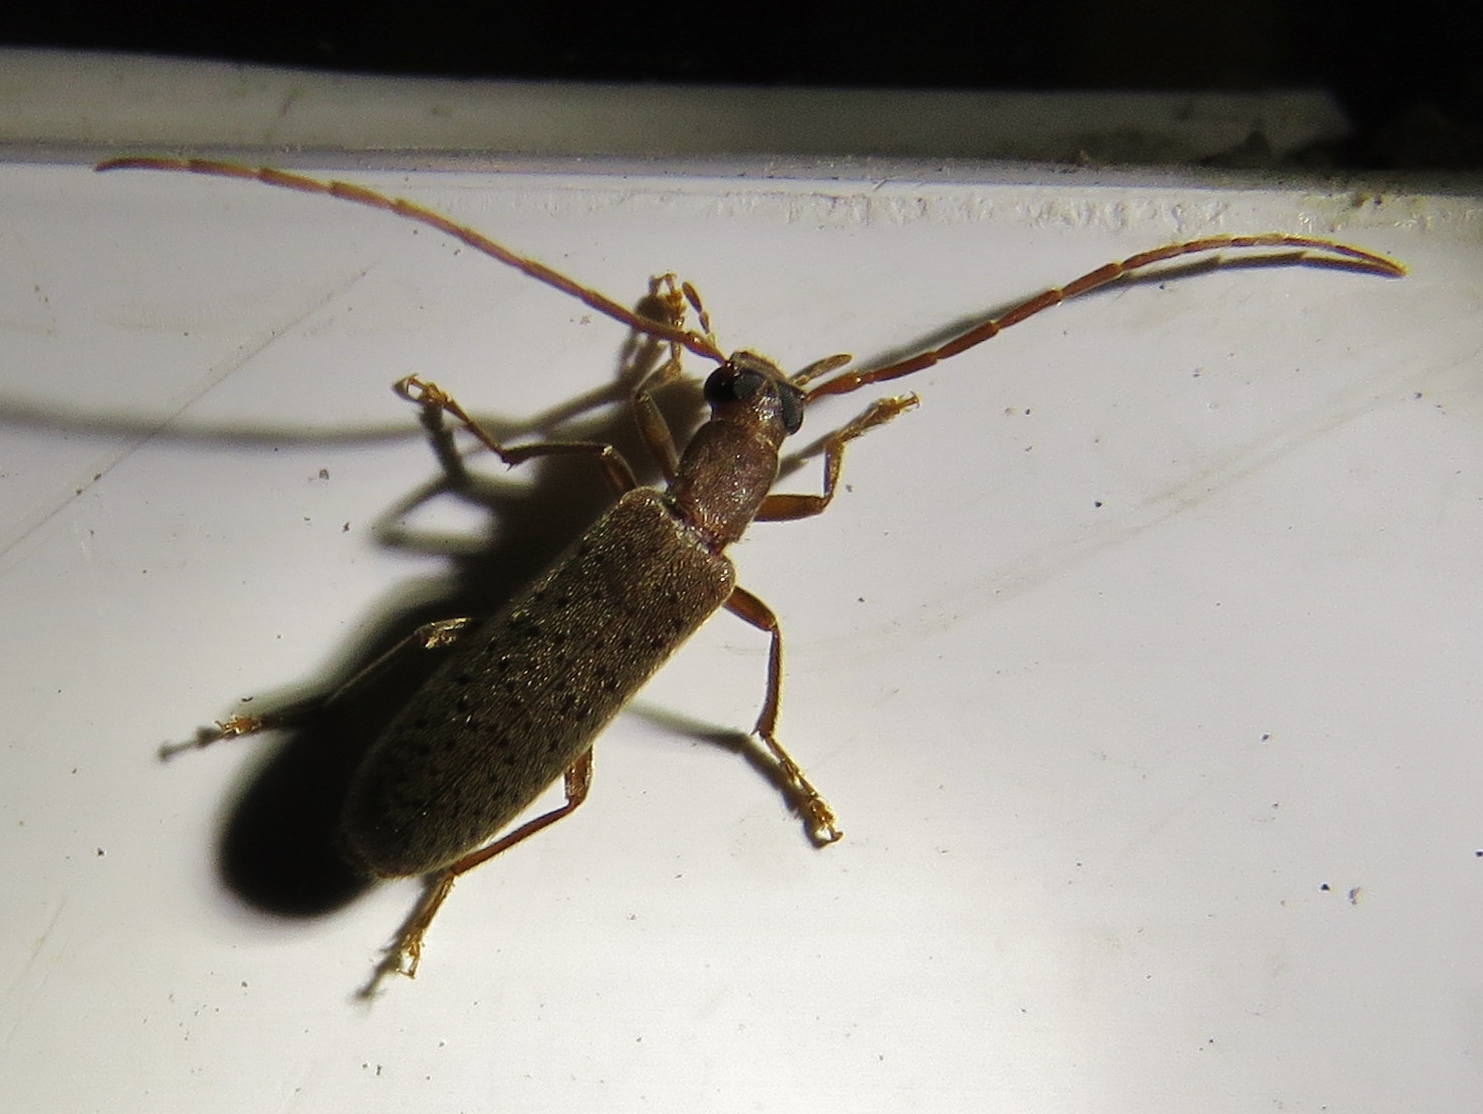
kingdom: Animalia
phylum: Arthropoda
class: Insecta
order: Coleoptera
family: Oedemeridae
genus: Sparedrus
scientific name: Sparedrus aspersus
